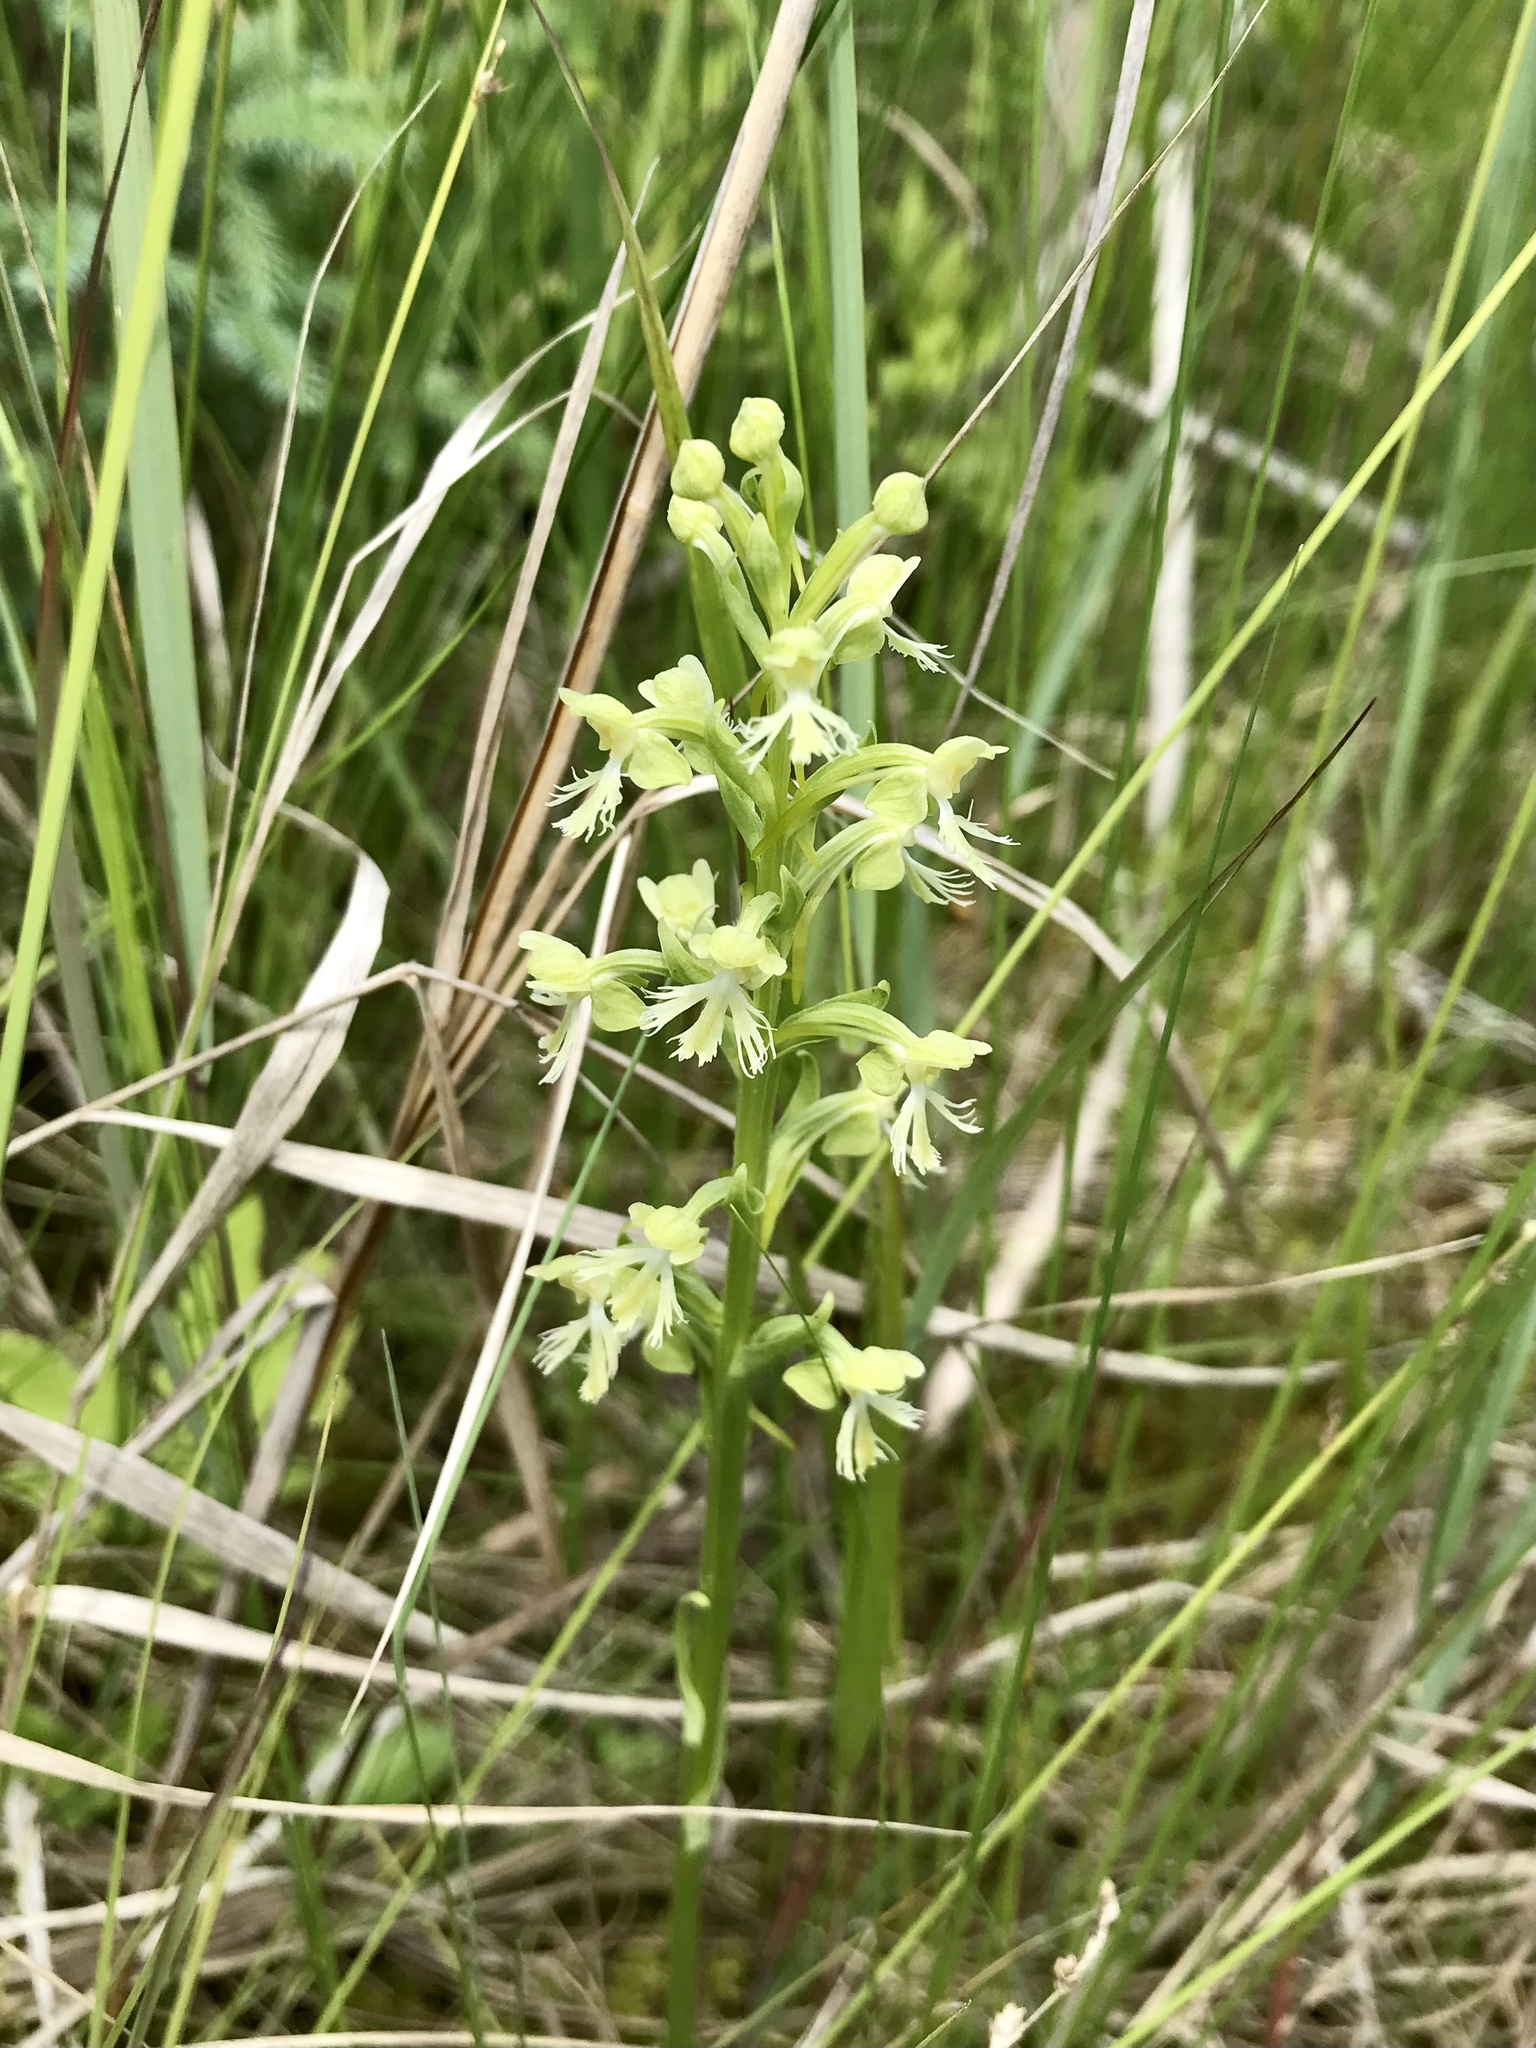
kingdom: Plantae
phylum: Tracheophyta
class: Liliopsida
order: Asparagales
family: Orchidaceae
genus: Platanthera
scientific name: Platanthera lacera
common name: Green fringed orchid
